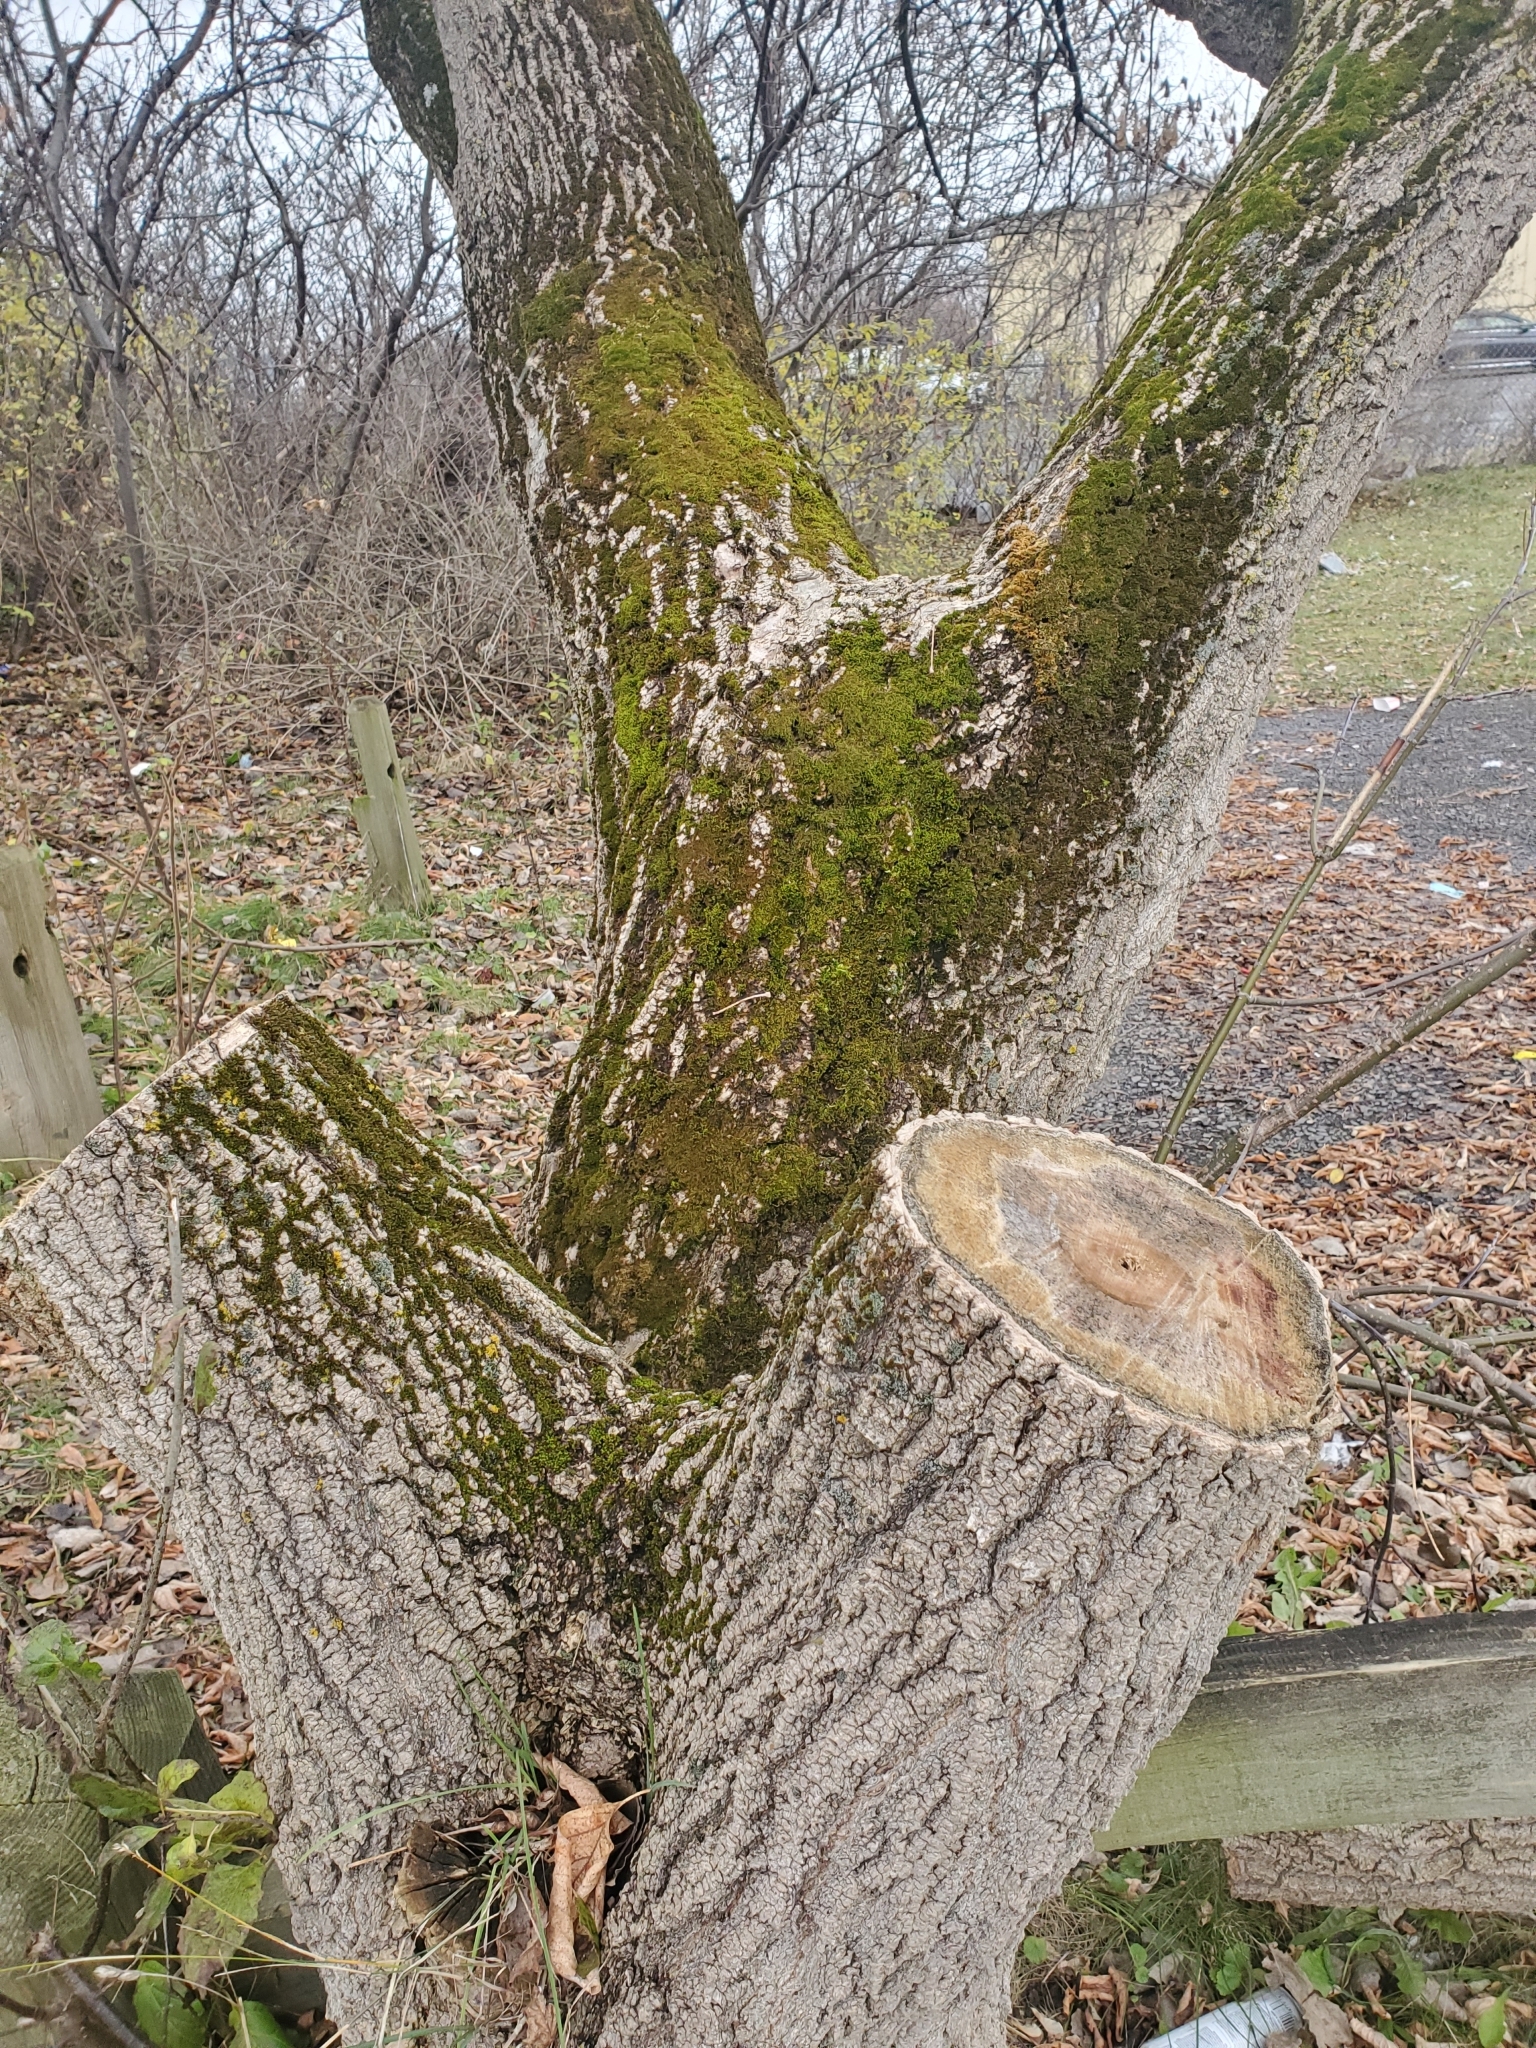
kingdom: Plantae
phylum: Tracheophyta
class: Magnoliopsida
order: Sapindales
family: Sapindaceae
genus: Acer
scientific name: Acer negundo
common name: Ashleaf maple
